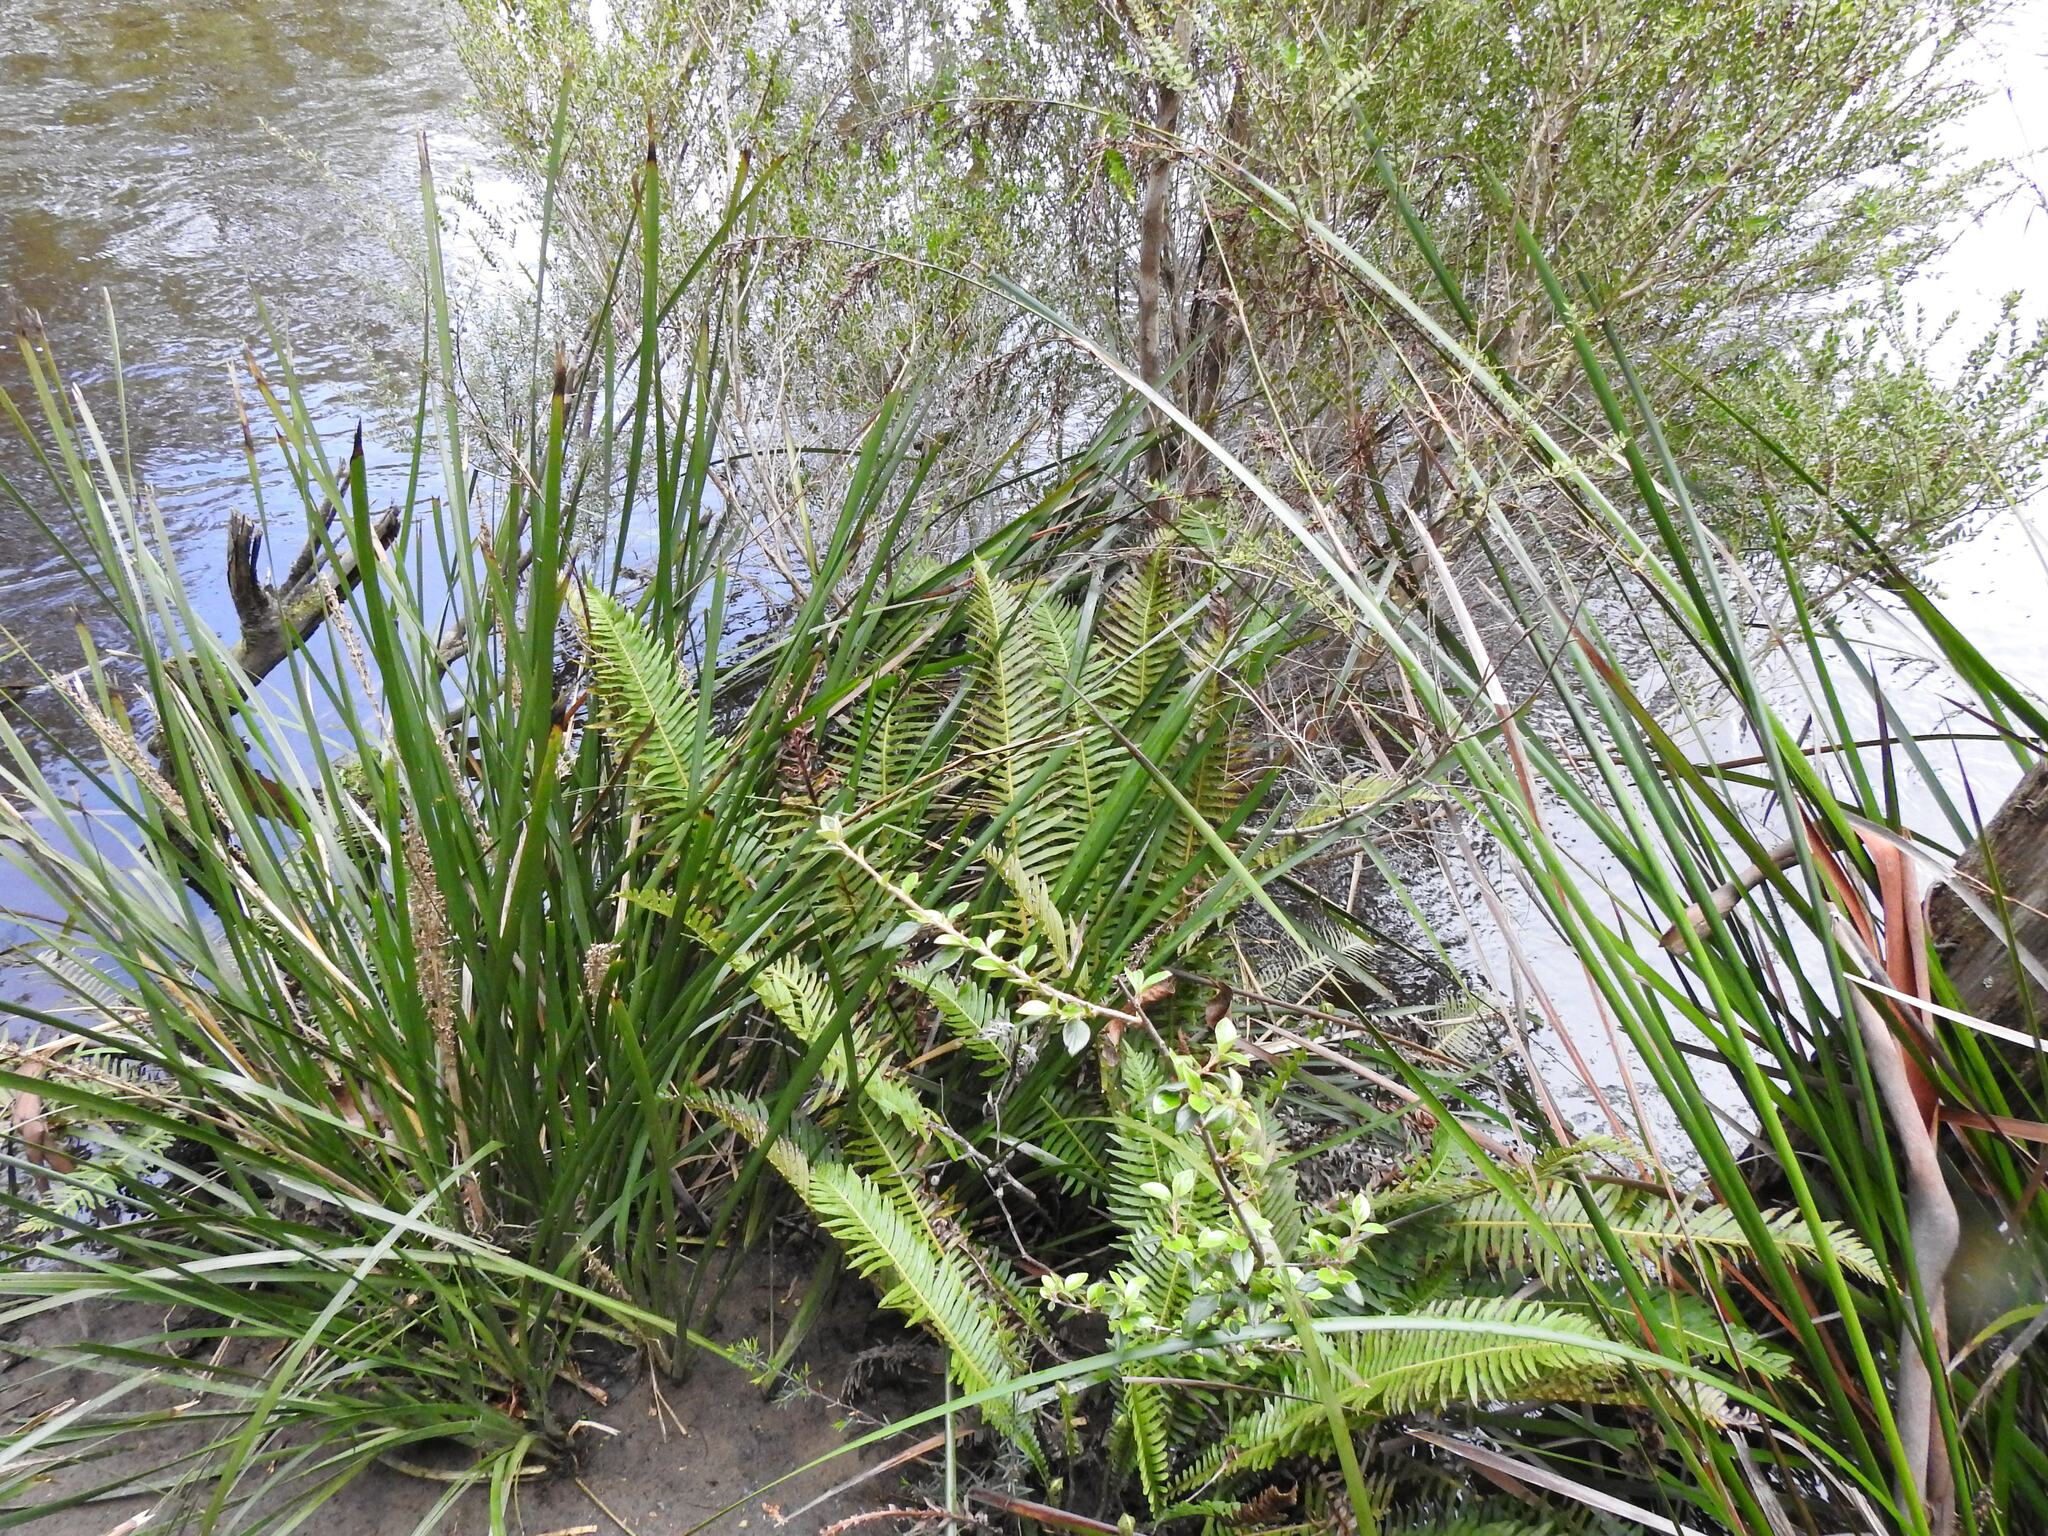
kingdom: Plantae
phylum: Tracheophyta
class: Polypodiopsida
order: Polypodiales
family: Blechnaceae
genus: Lomaria
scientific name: Lomaria nuda
